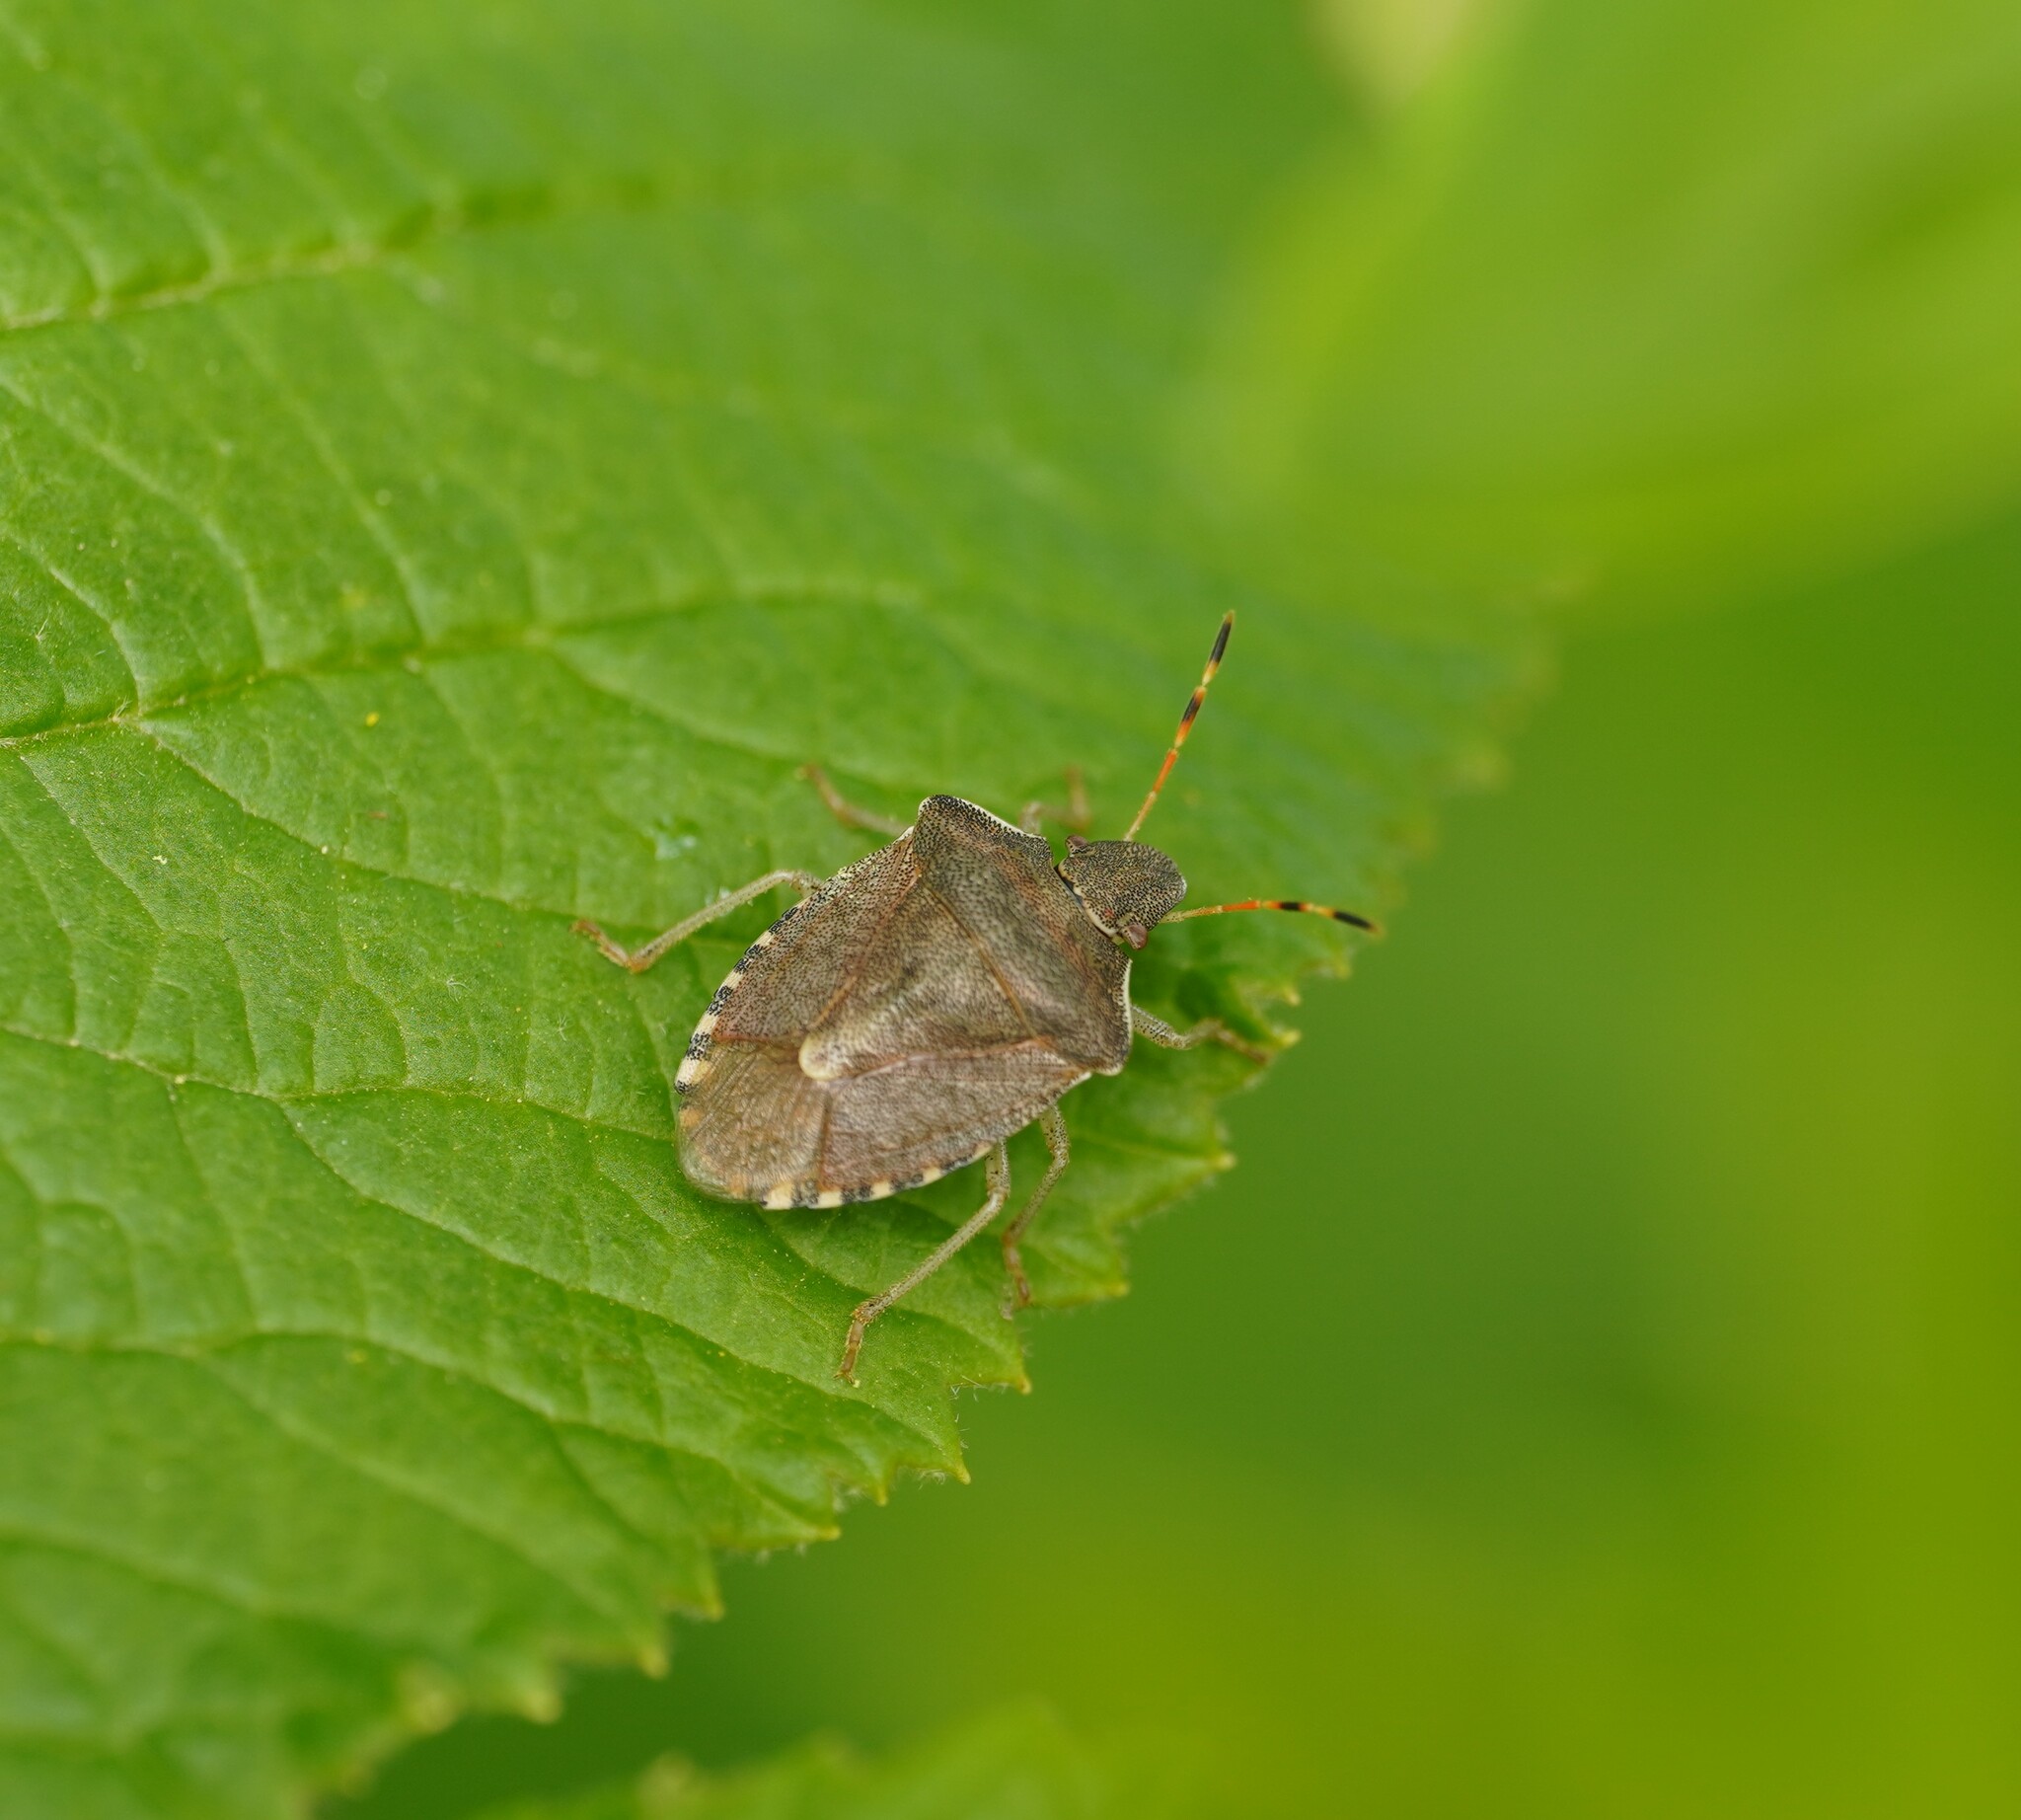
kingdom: Animalia
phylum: Arthropoda
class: Insecta
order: Hemiptera
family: Pentatomidae
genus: Holcostethus
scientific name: Holcostethus strictus
